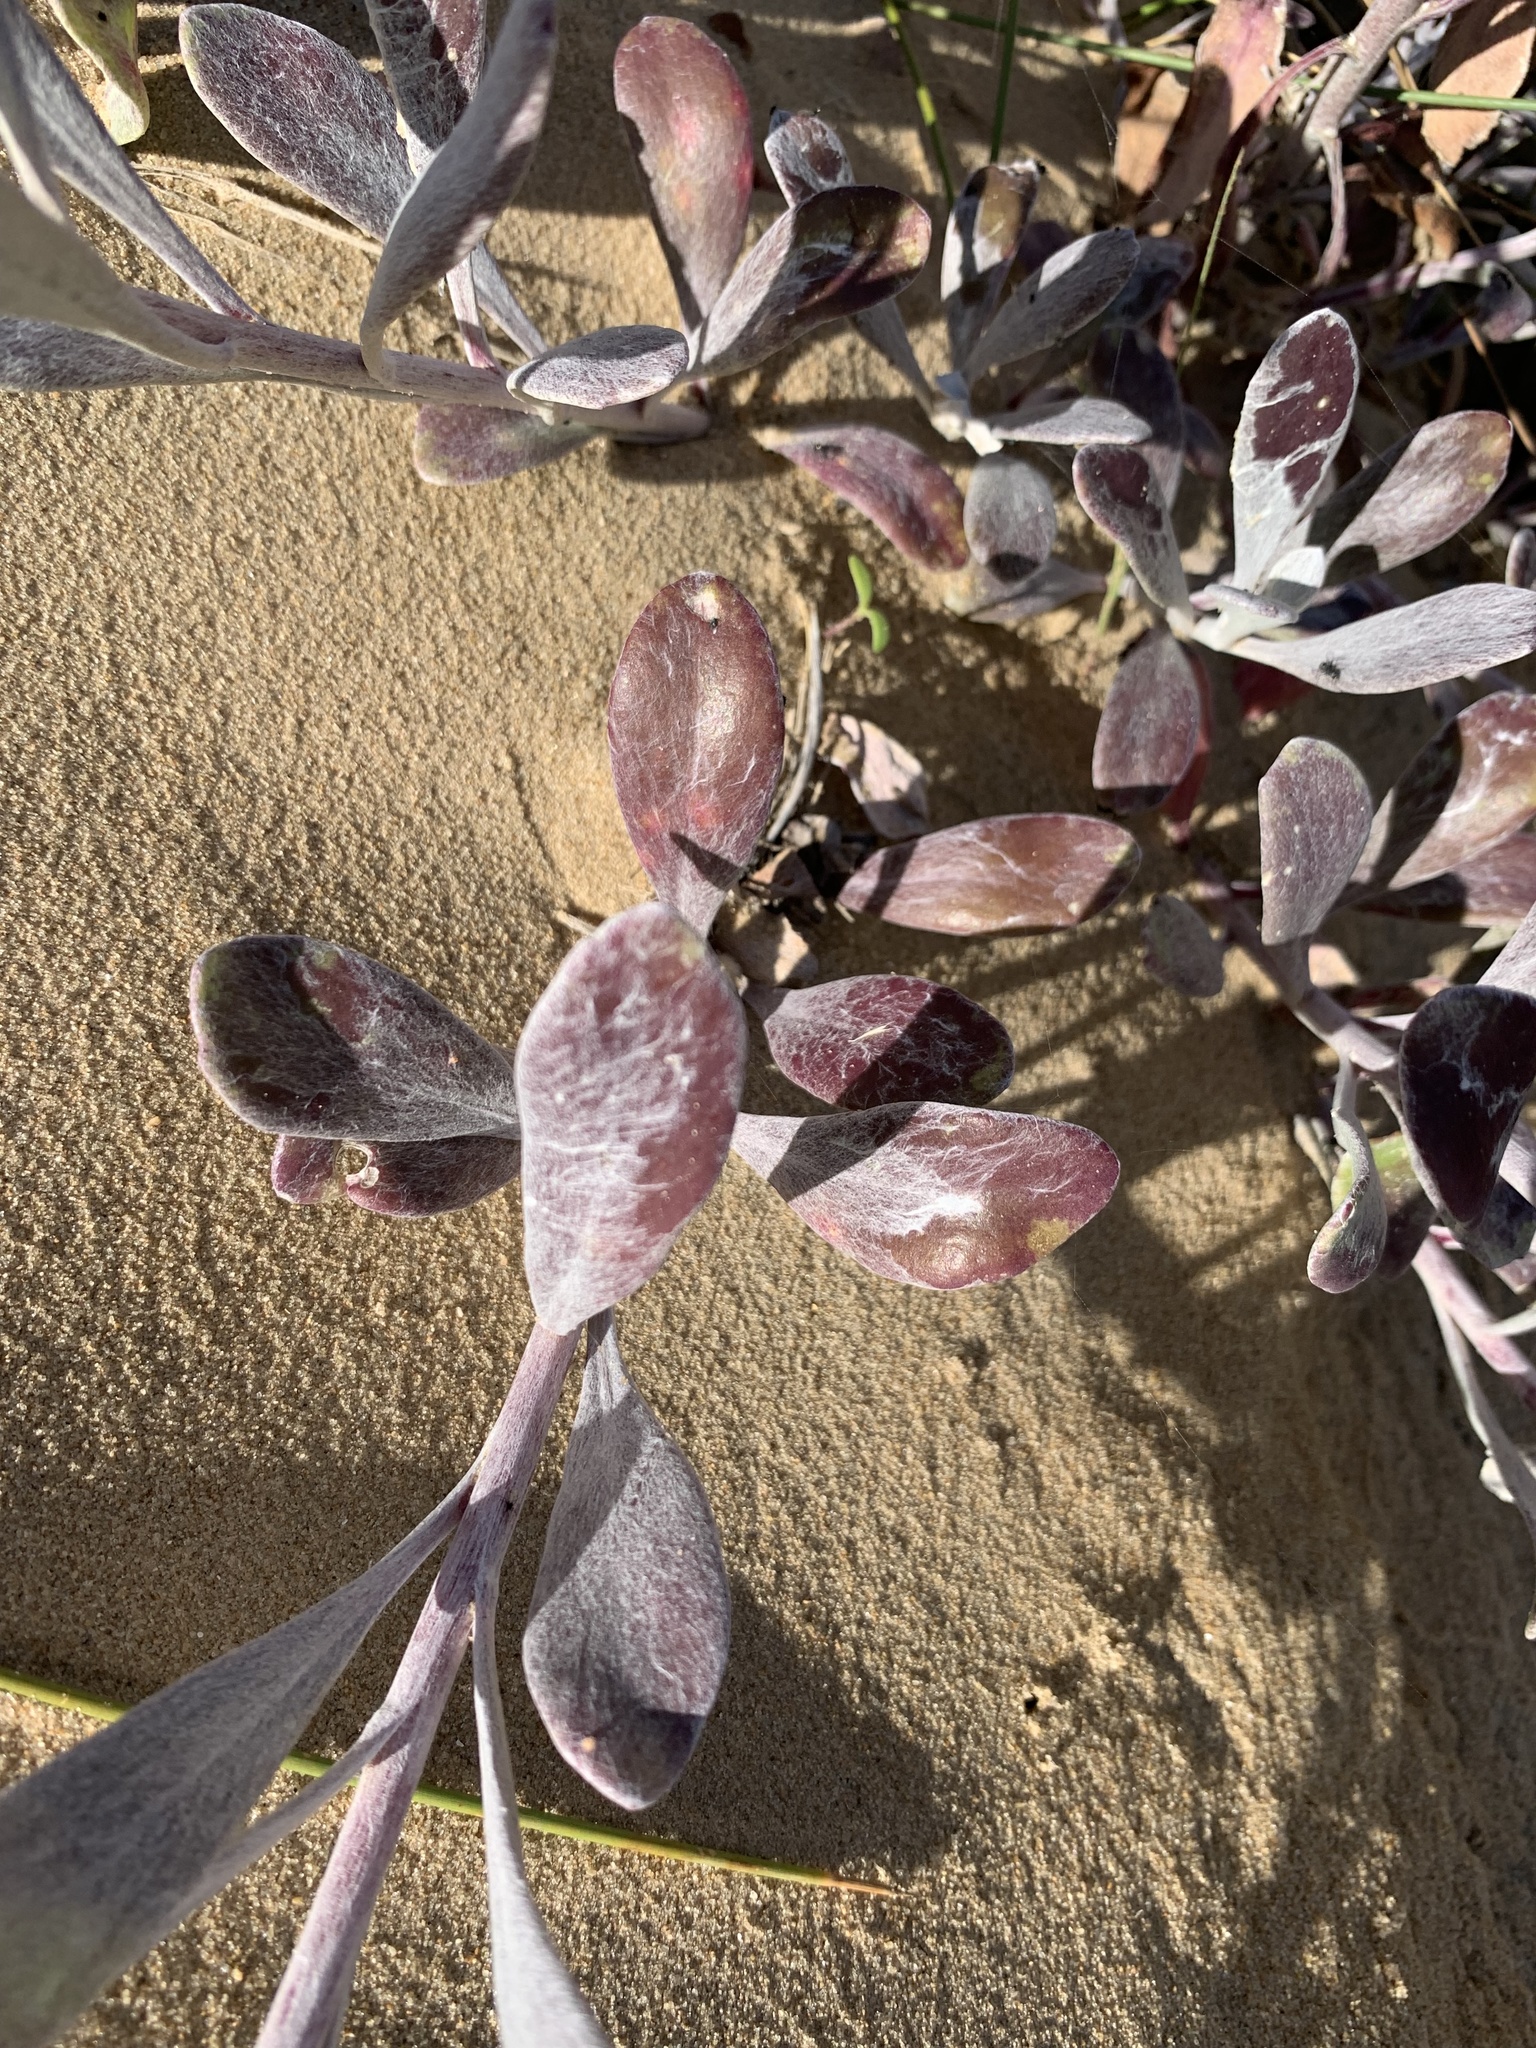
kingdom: Plantae
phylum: Tracheophyta
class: Magnoliopsida
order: Asterales
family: Asteraceae
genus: Senecio
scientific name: Senecio crassiflorus
